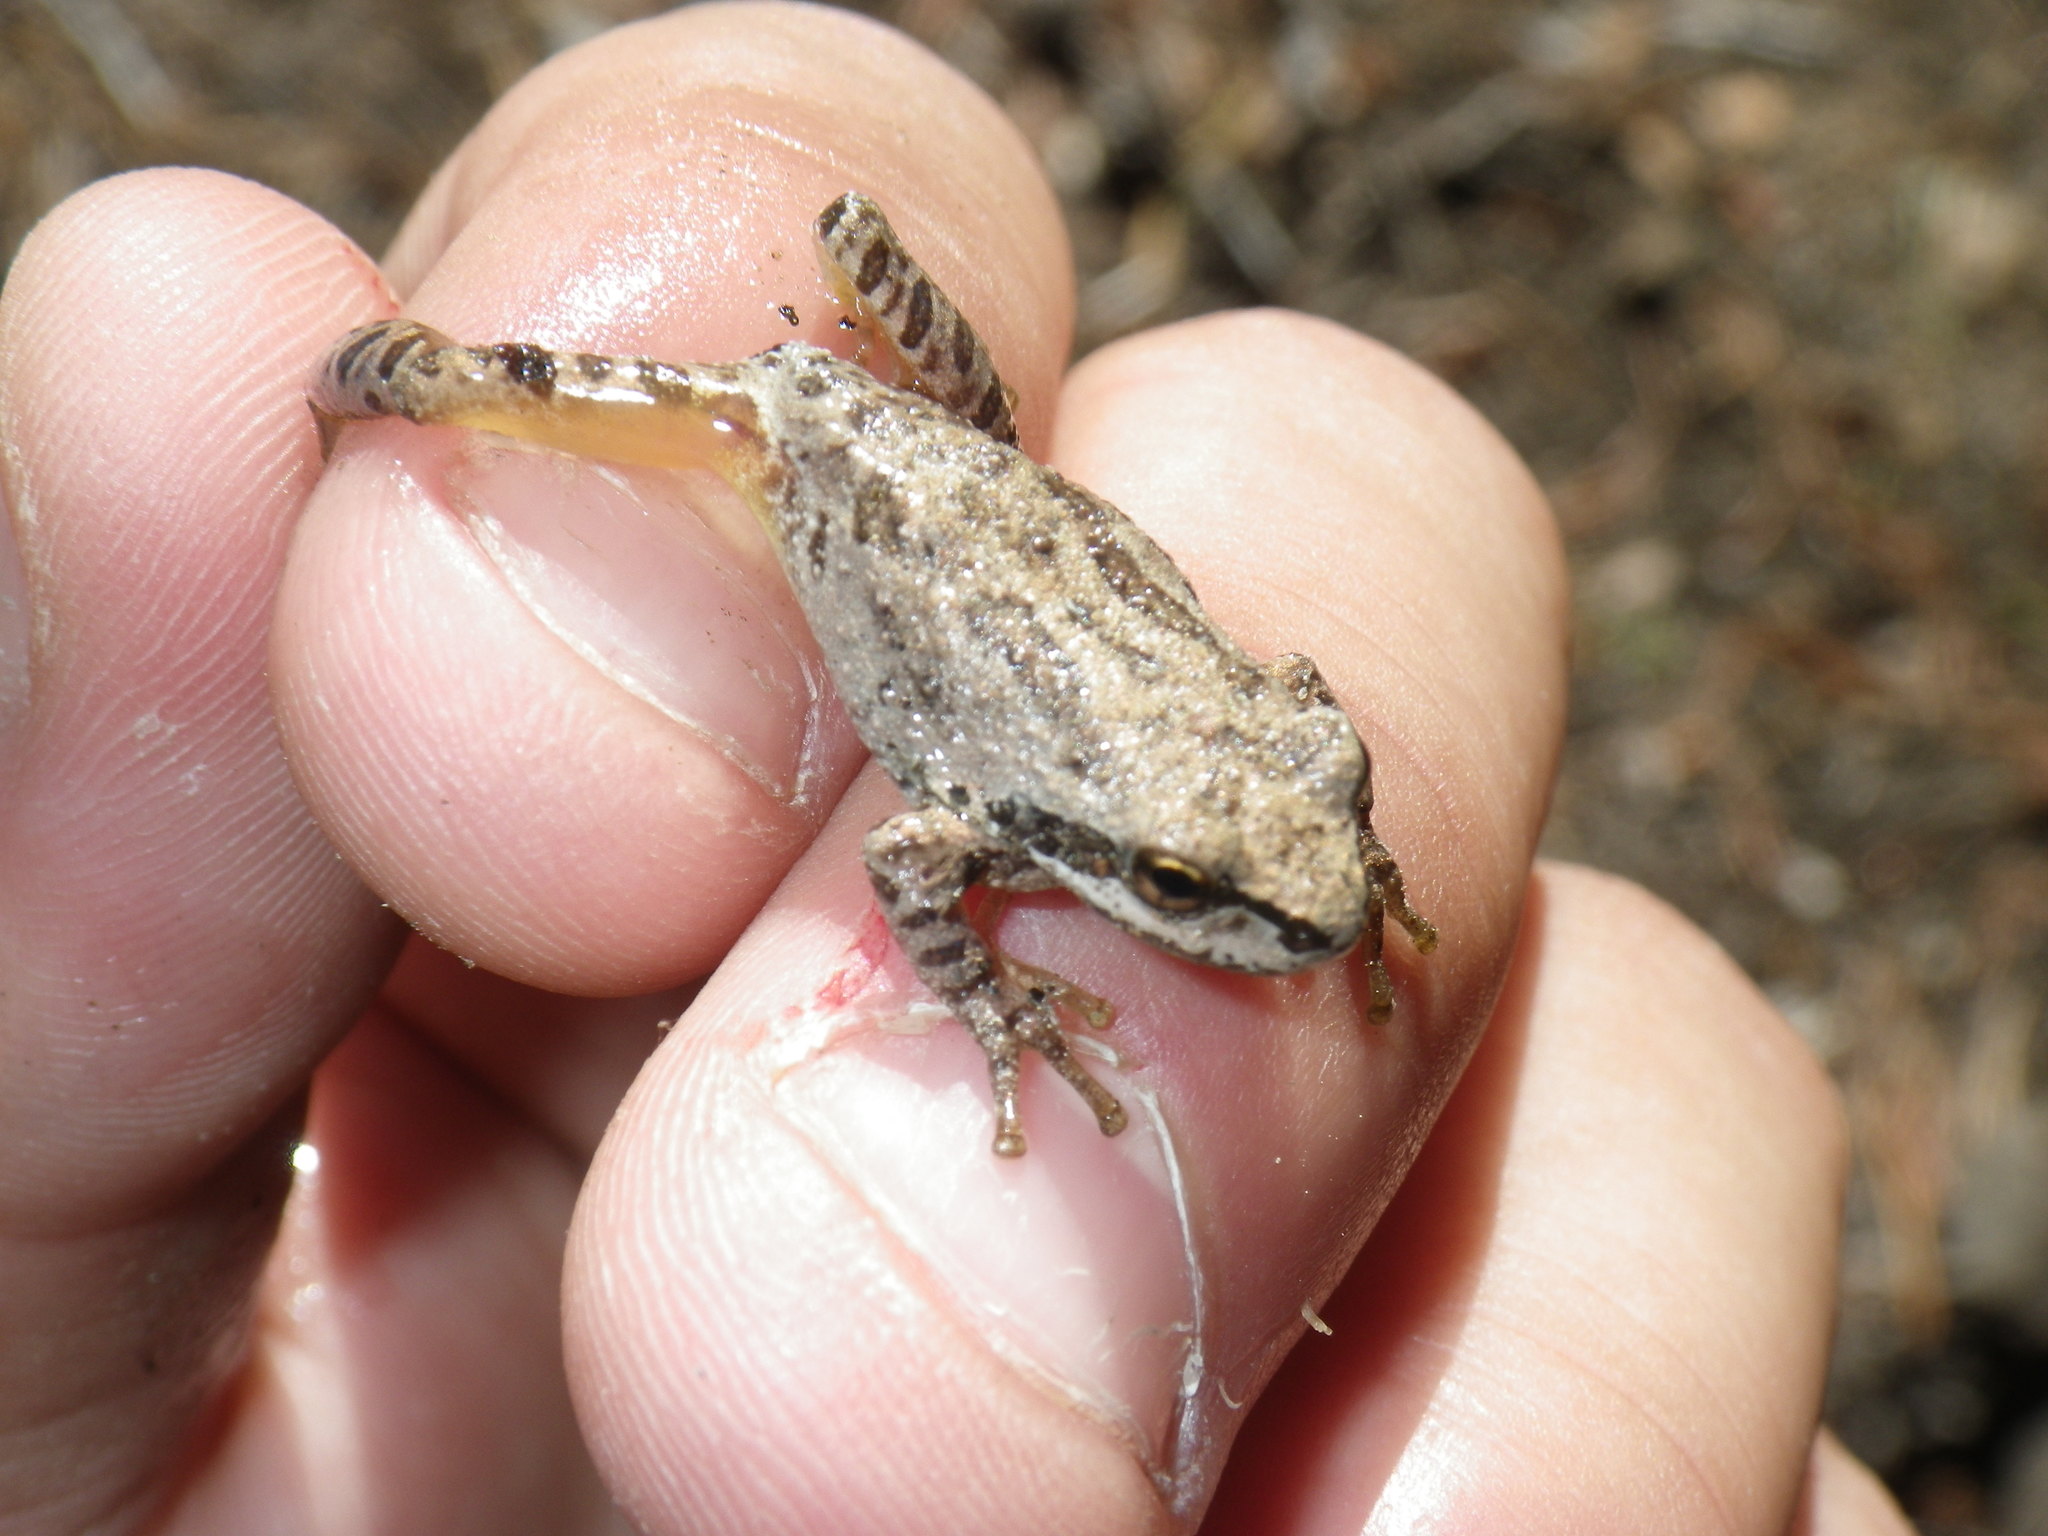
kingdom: Animalia
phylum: Chordata
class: Amphibia
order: Anura
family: Hylidae
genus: Pseudacris
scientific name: Pseudacris regilla
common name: Pacific chorus frog
